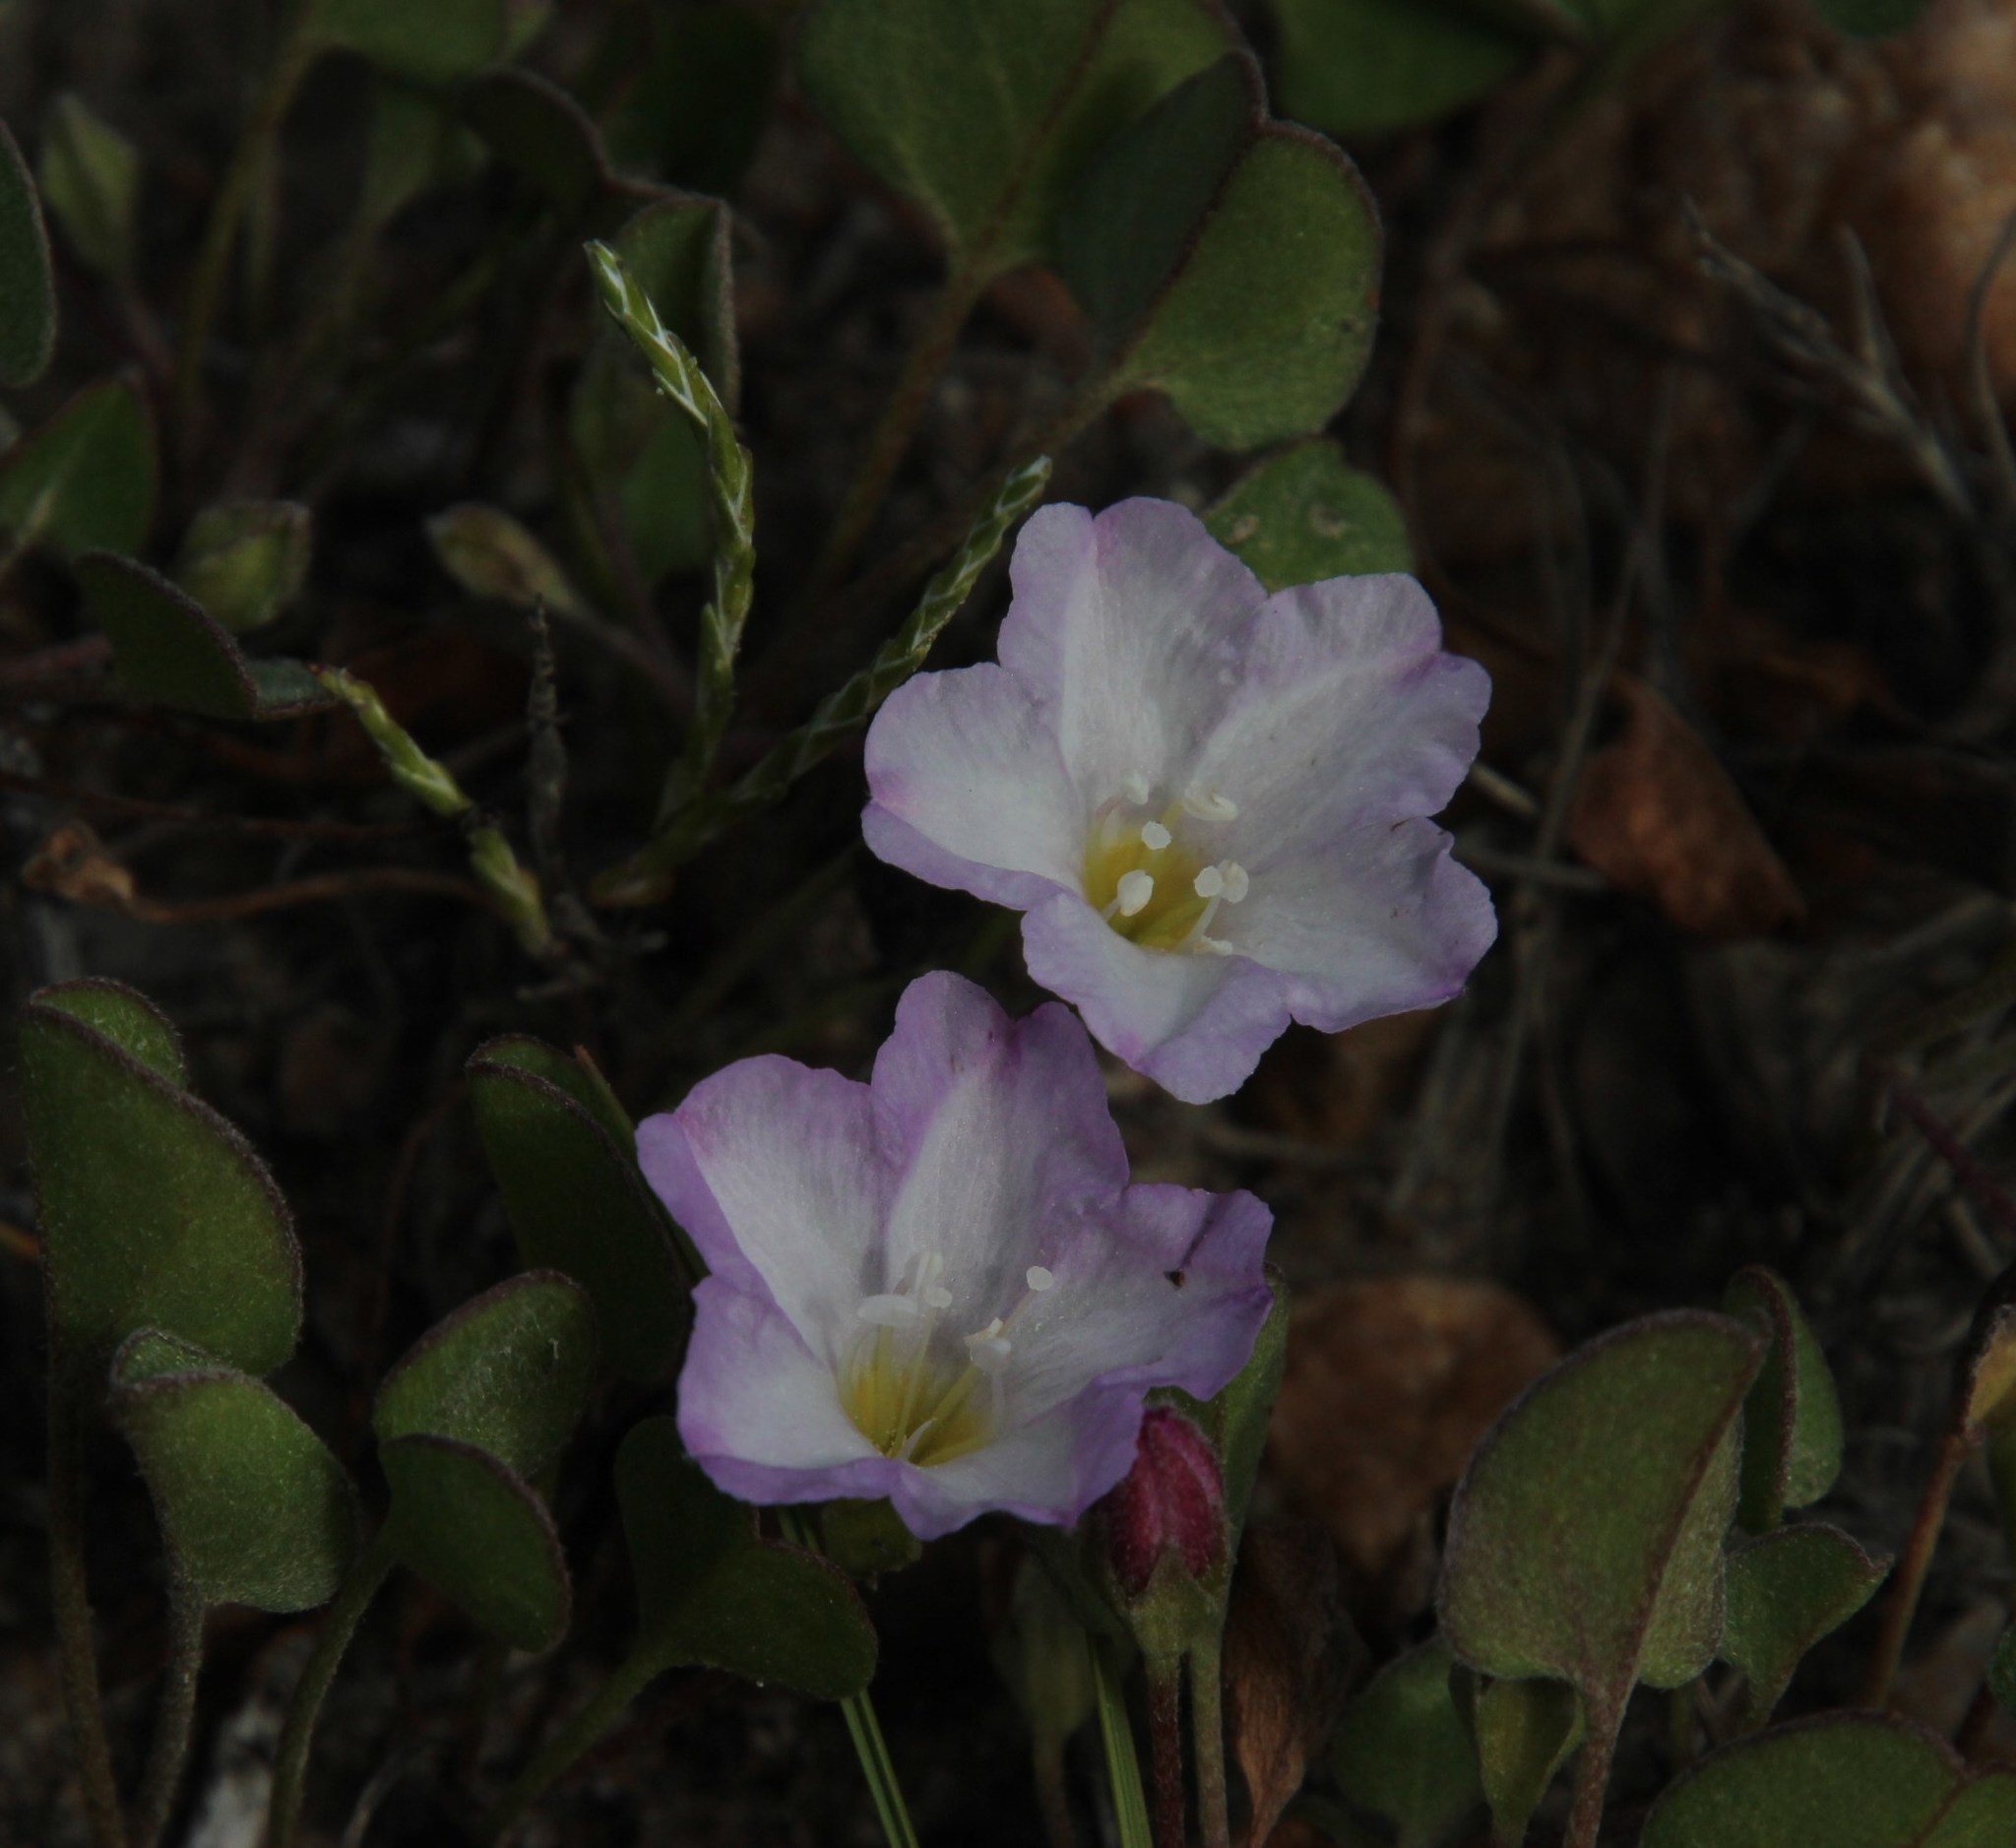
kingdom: Plantae
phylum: Tracheophyta
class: Magnoliopsida
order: Solanales
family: Convolvulaceae
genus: Falkia
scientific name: Falkia repens
